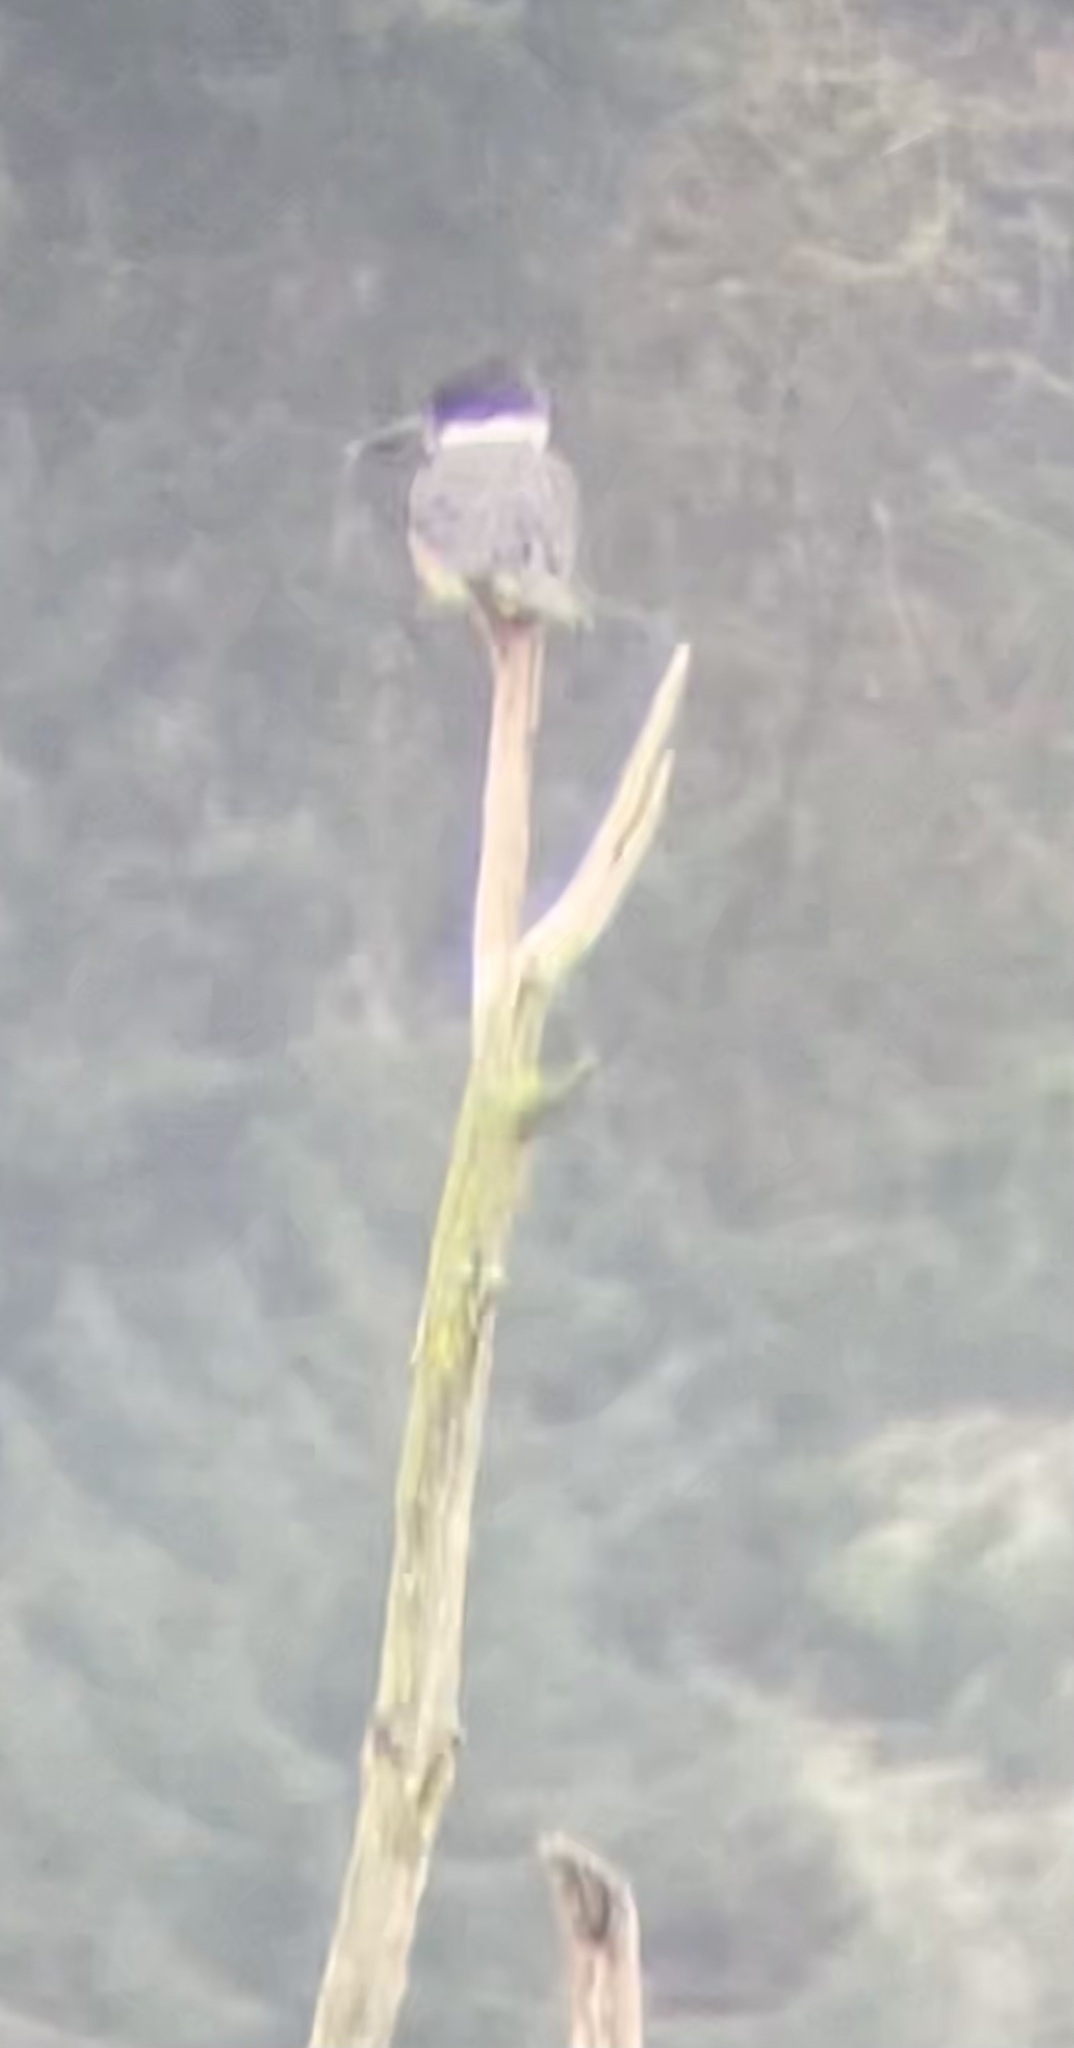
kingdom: Animalia
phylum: Chordata
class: Aves
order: Coraciiformes
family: Alcedinidae
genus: Megaceryle
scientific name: Megaceryle alcyon
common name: Belted kingfisher
